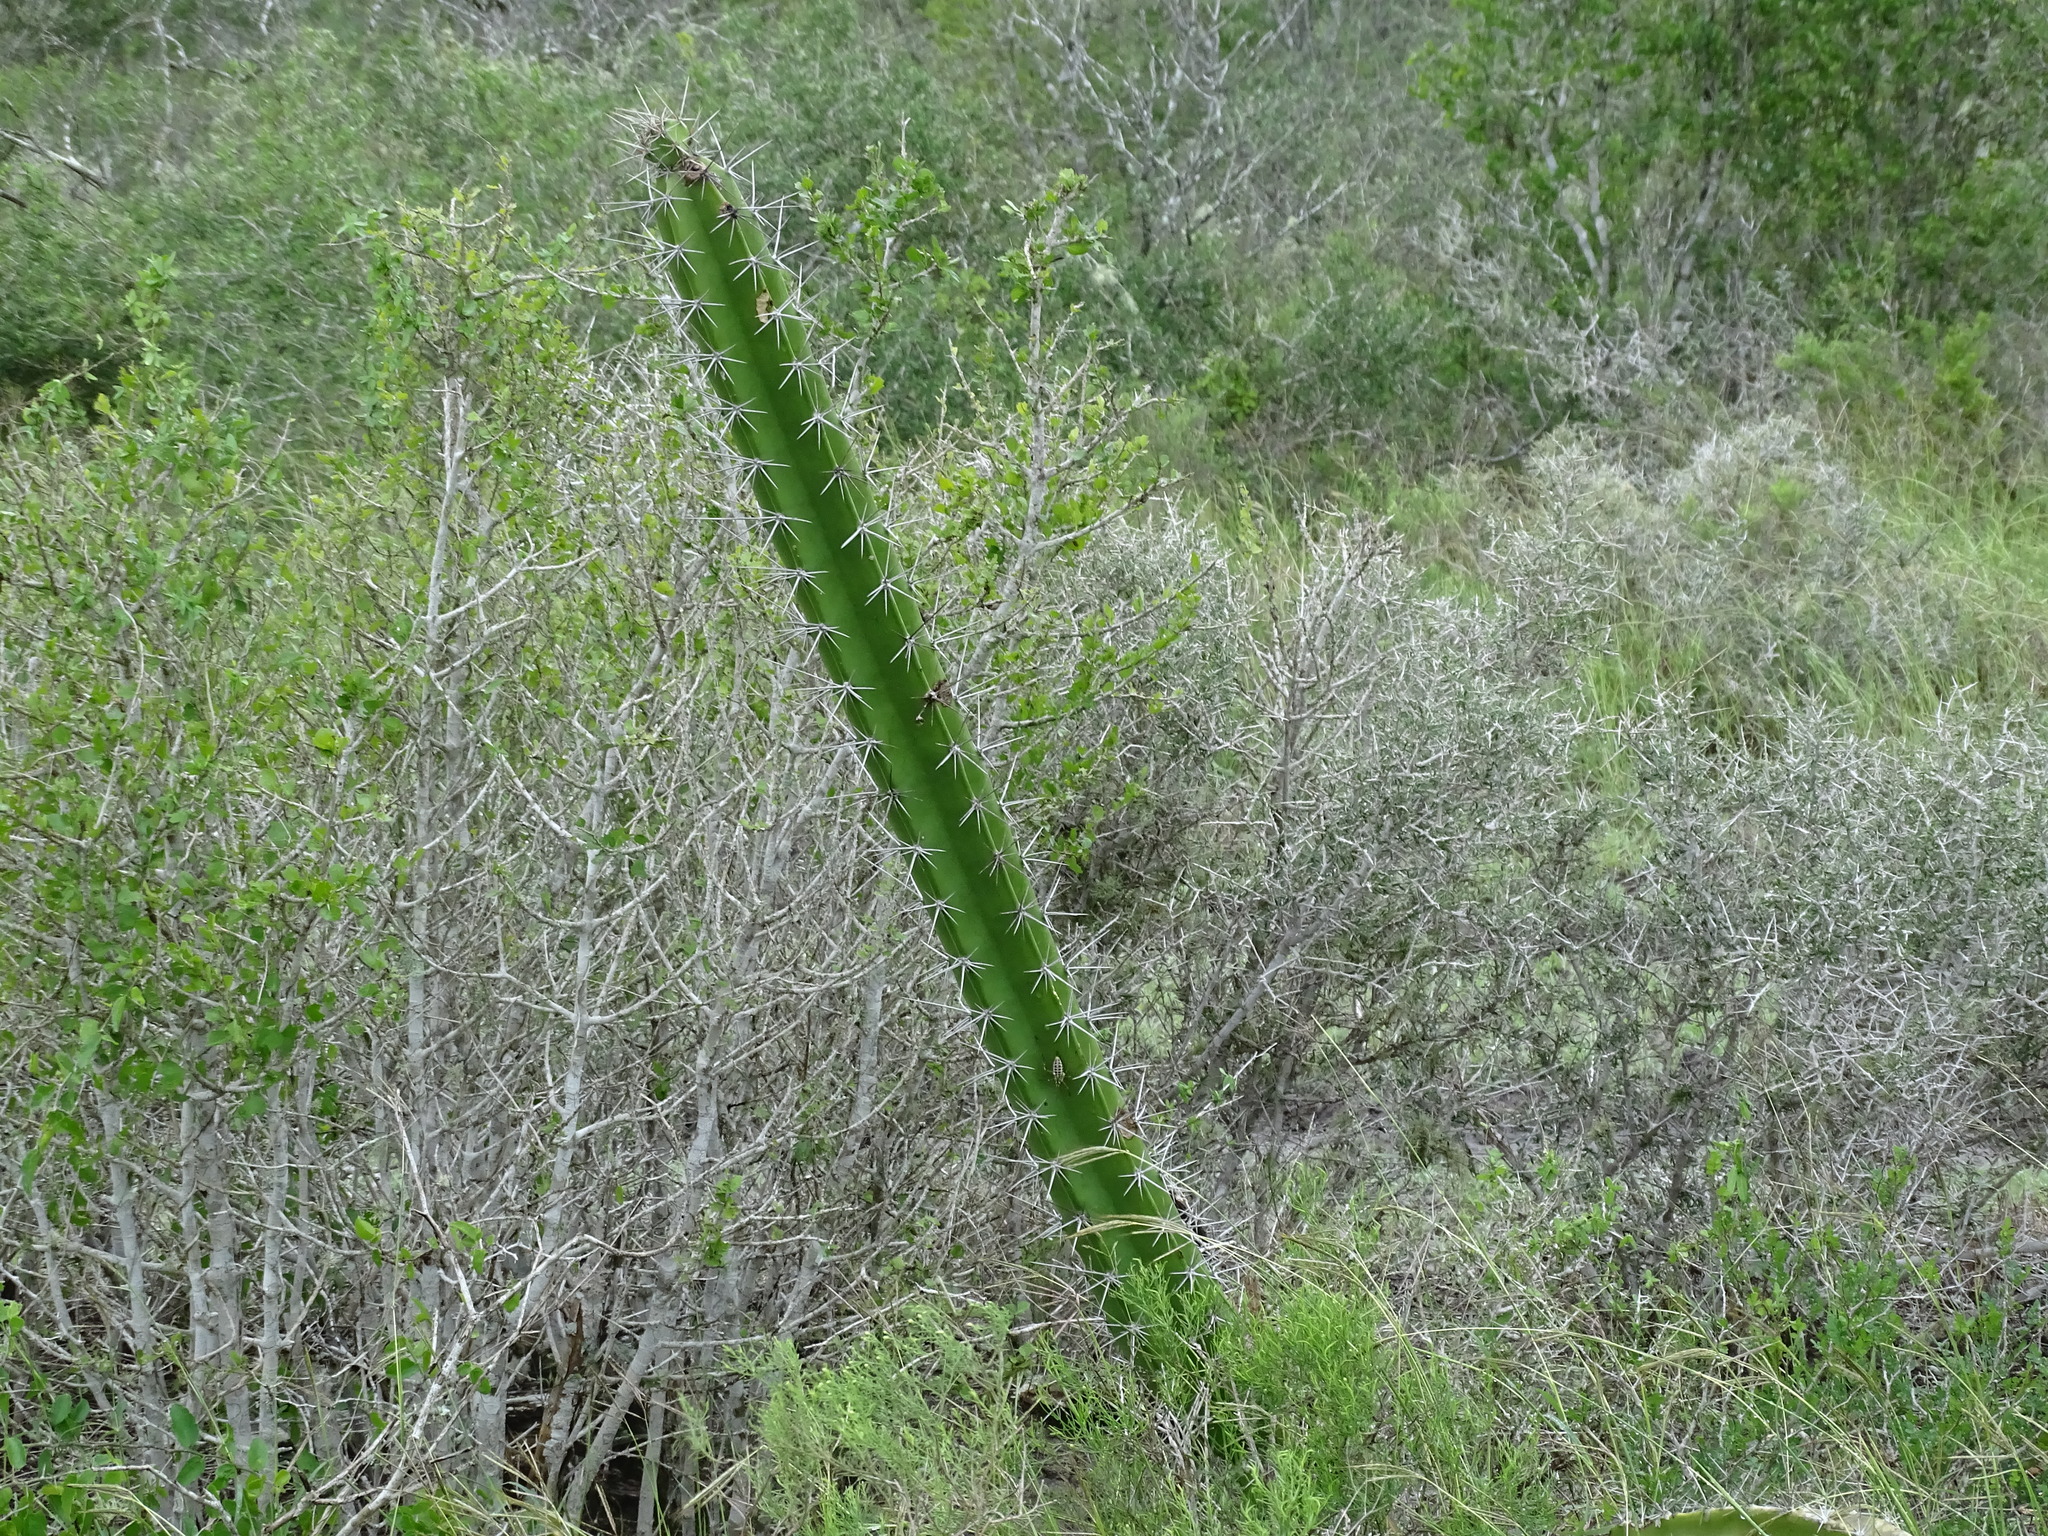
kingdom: Plantae
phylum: Tracheophyta
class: Magnoliopsida
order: Caryophyllales
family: Cactaceae
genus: Acanthocereus
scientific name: Acanthocereus tetragonus
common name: Triangle cactus
